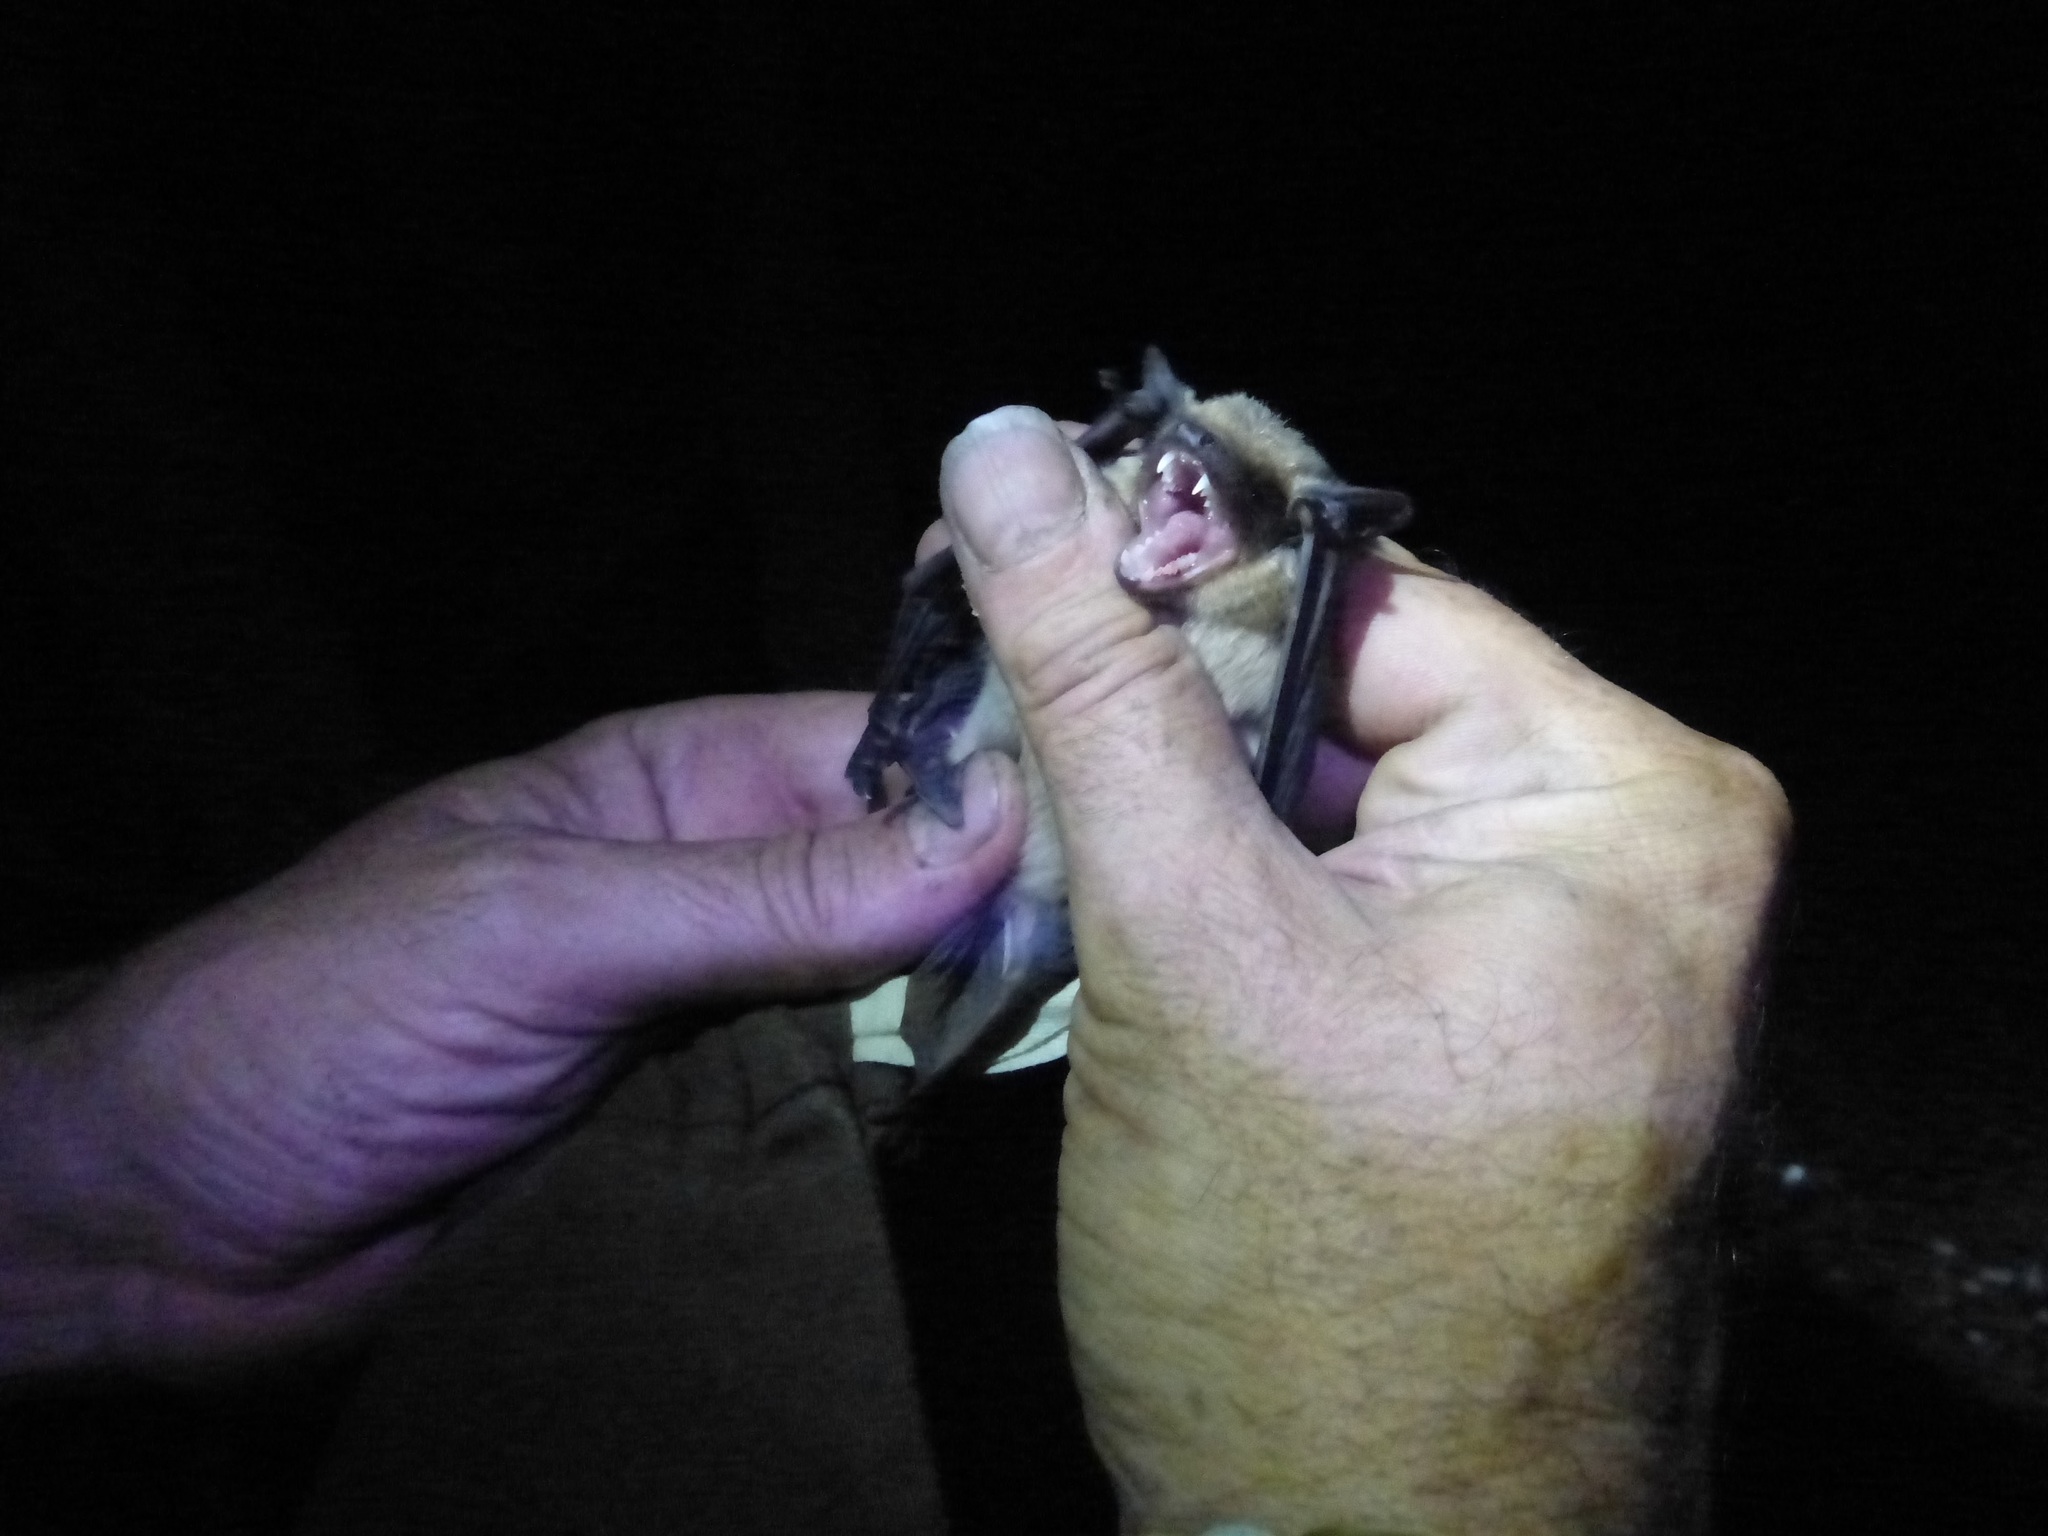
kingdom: Animalia
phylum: Chordata
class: Mammalia
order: Chiroptera
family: Vespertilionidae
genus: Eptesicus
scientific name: Eptesicus isabellinus
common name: Meridional serotine
